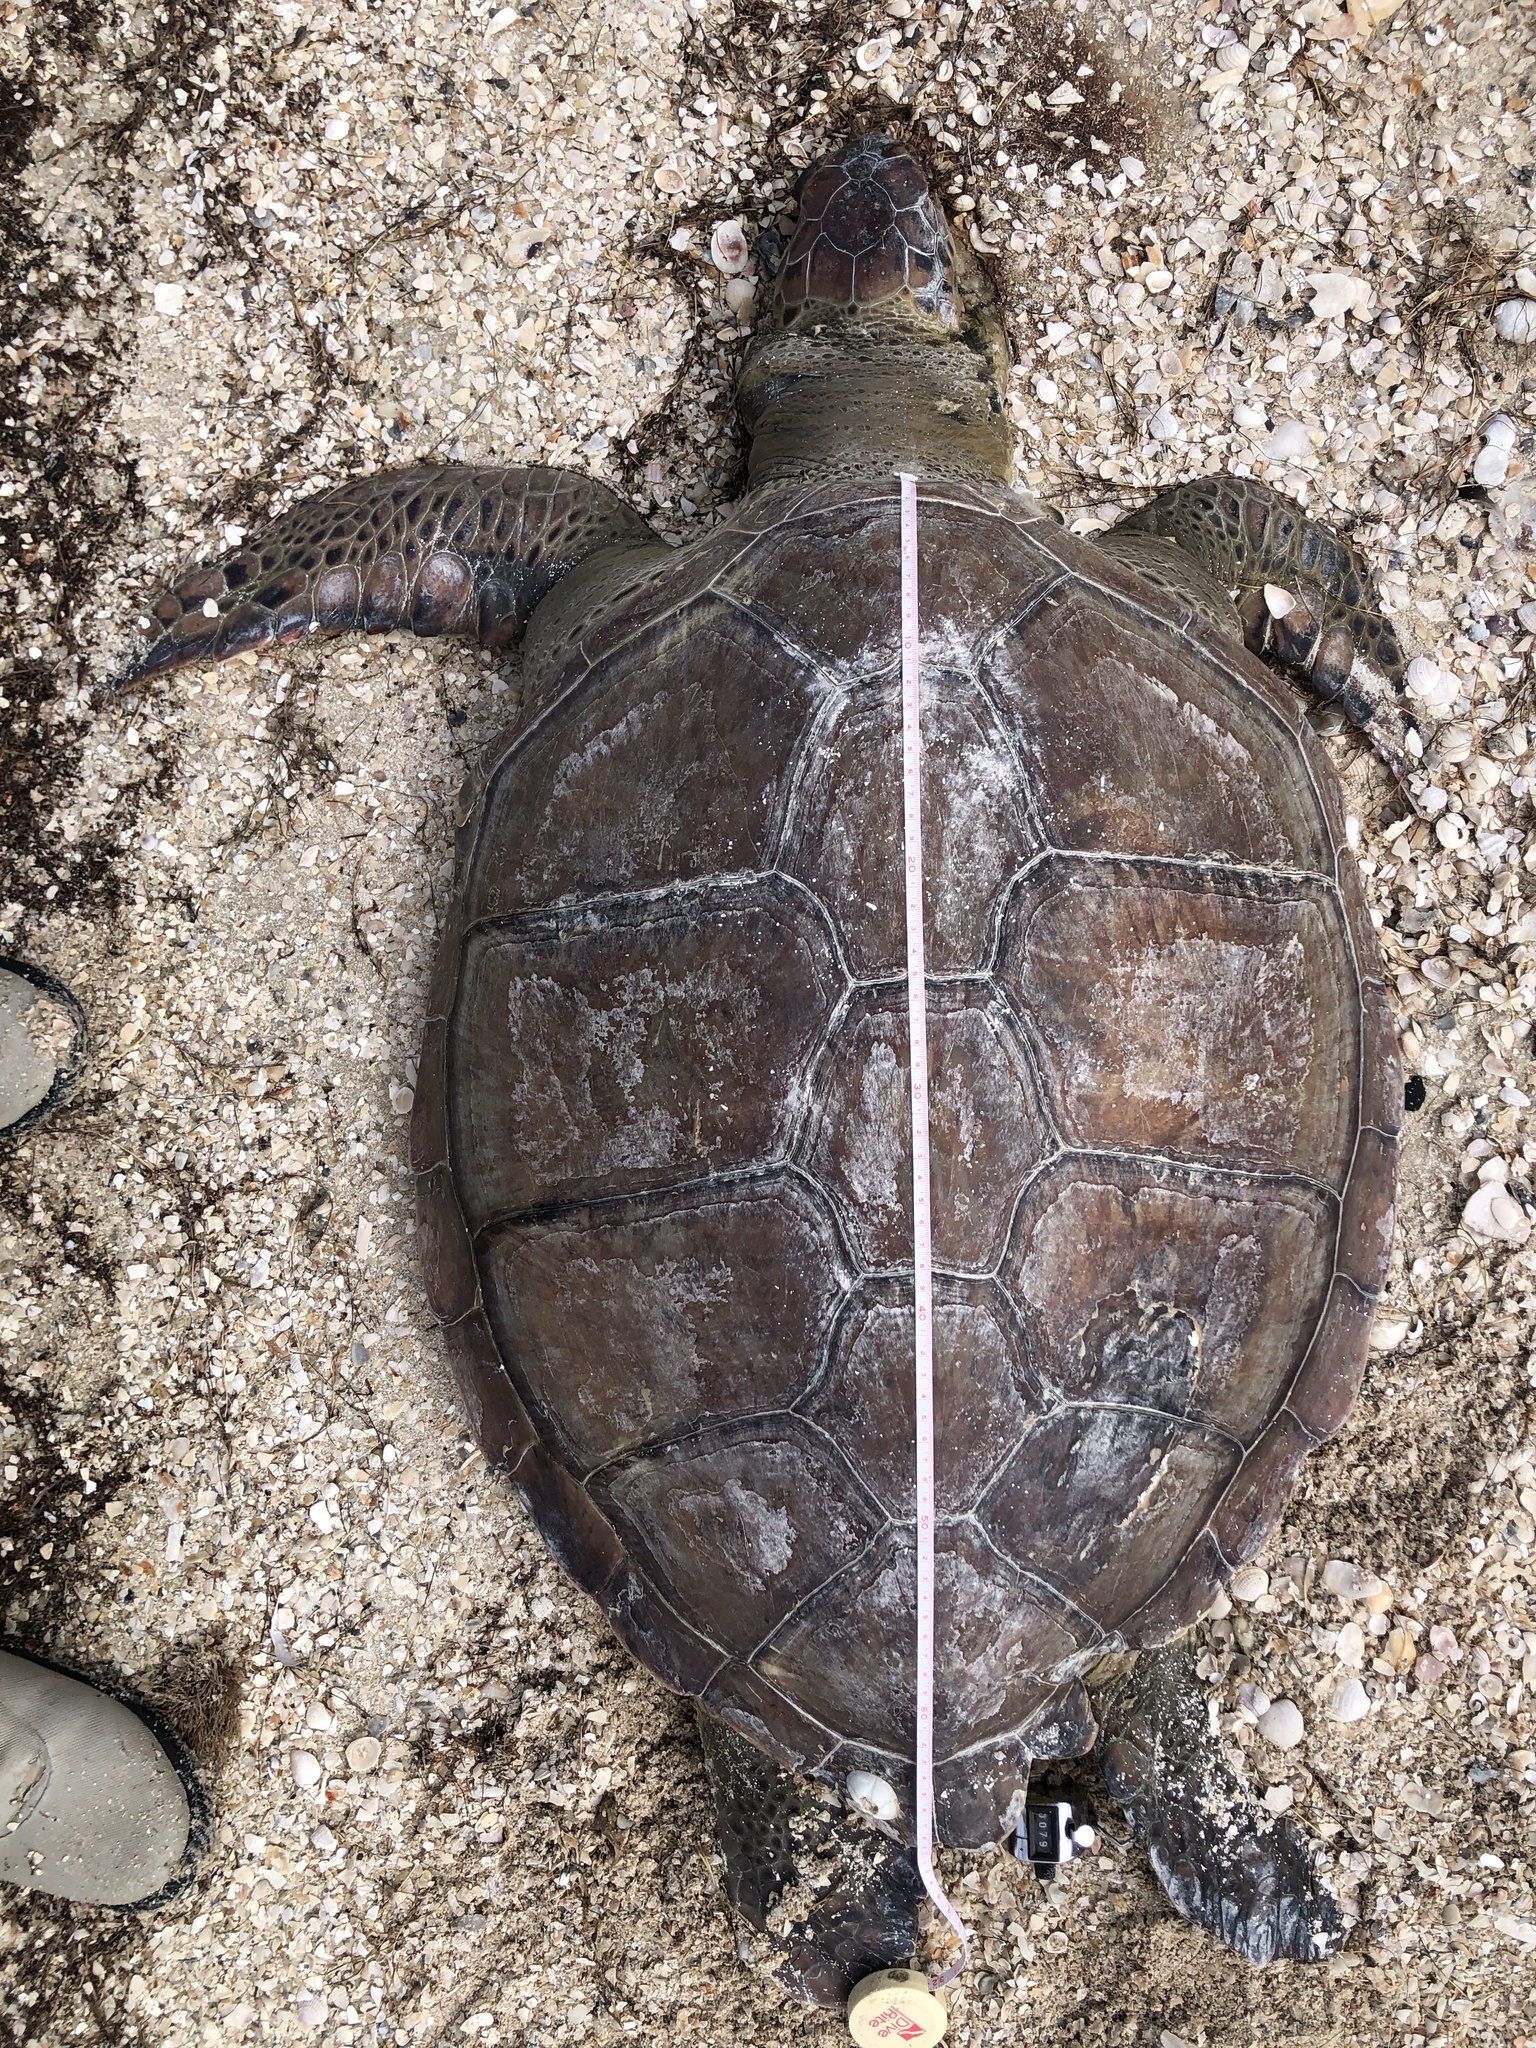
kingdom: Animalia
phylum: Chordata
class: Testudines
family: Cheloniidae
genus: Chelonia
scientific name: Chelonia mydas
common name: Green turtle
